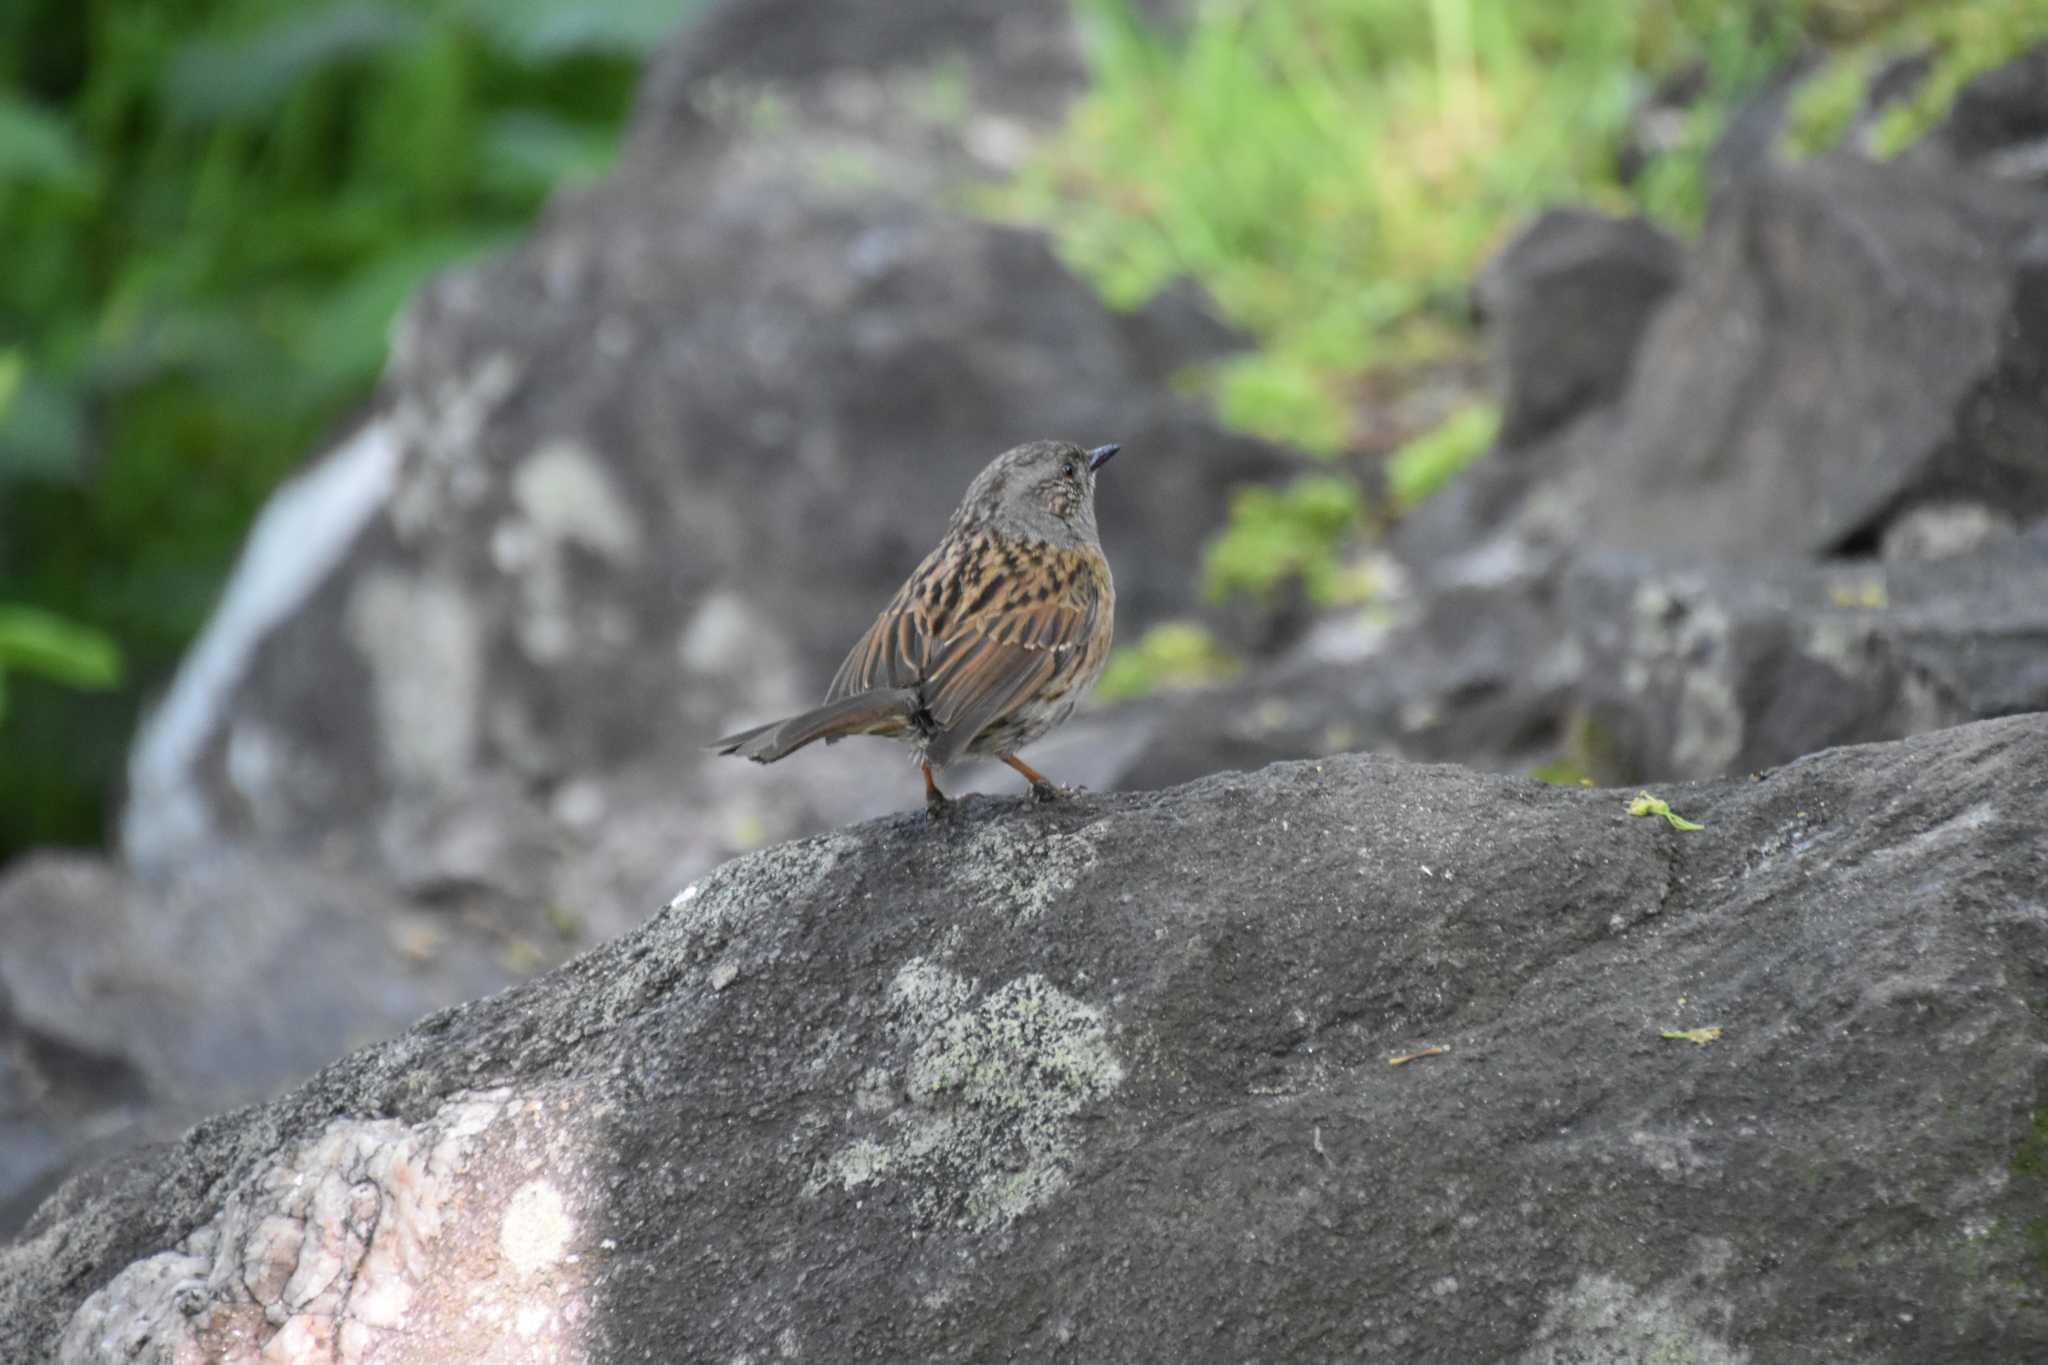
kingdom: Animalia
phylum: Chordata
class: Aves
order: Passeriformes
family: Prunellidae
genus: Prunella
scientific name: Prunella modularis
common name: Dunnock
